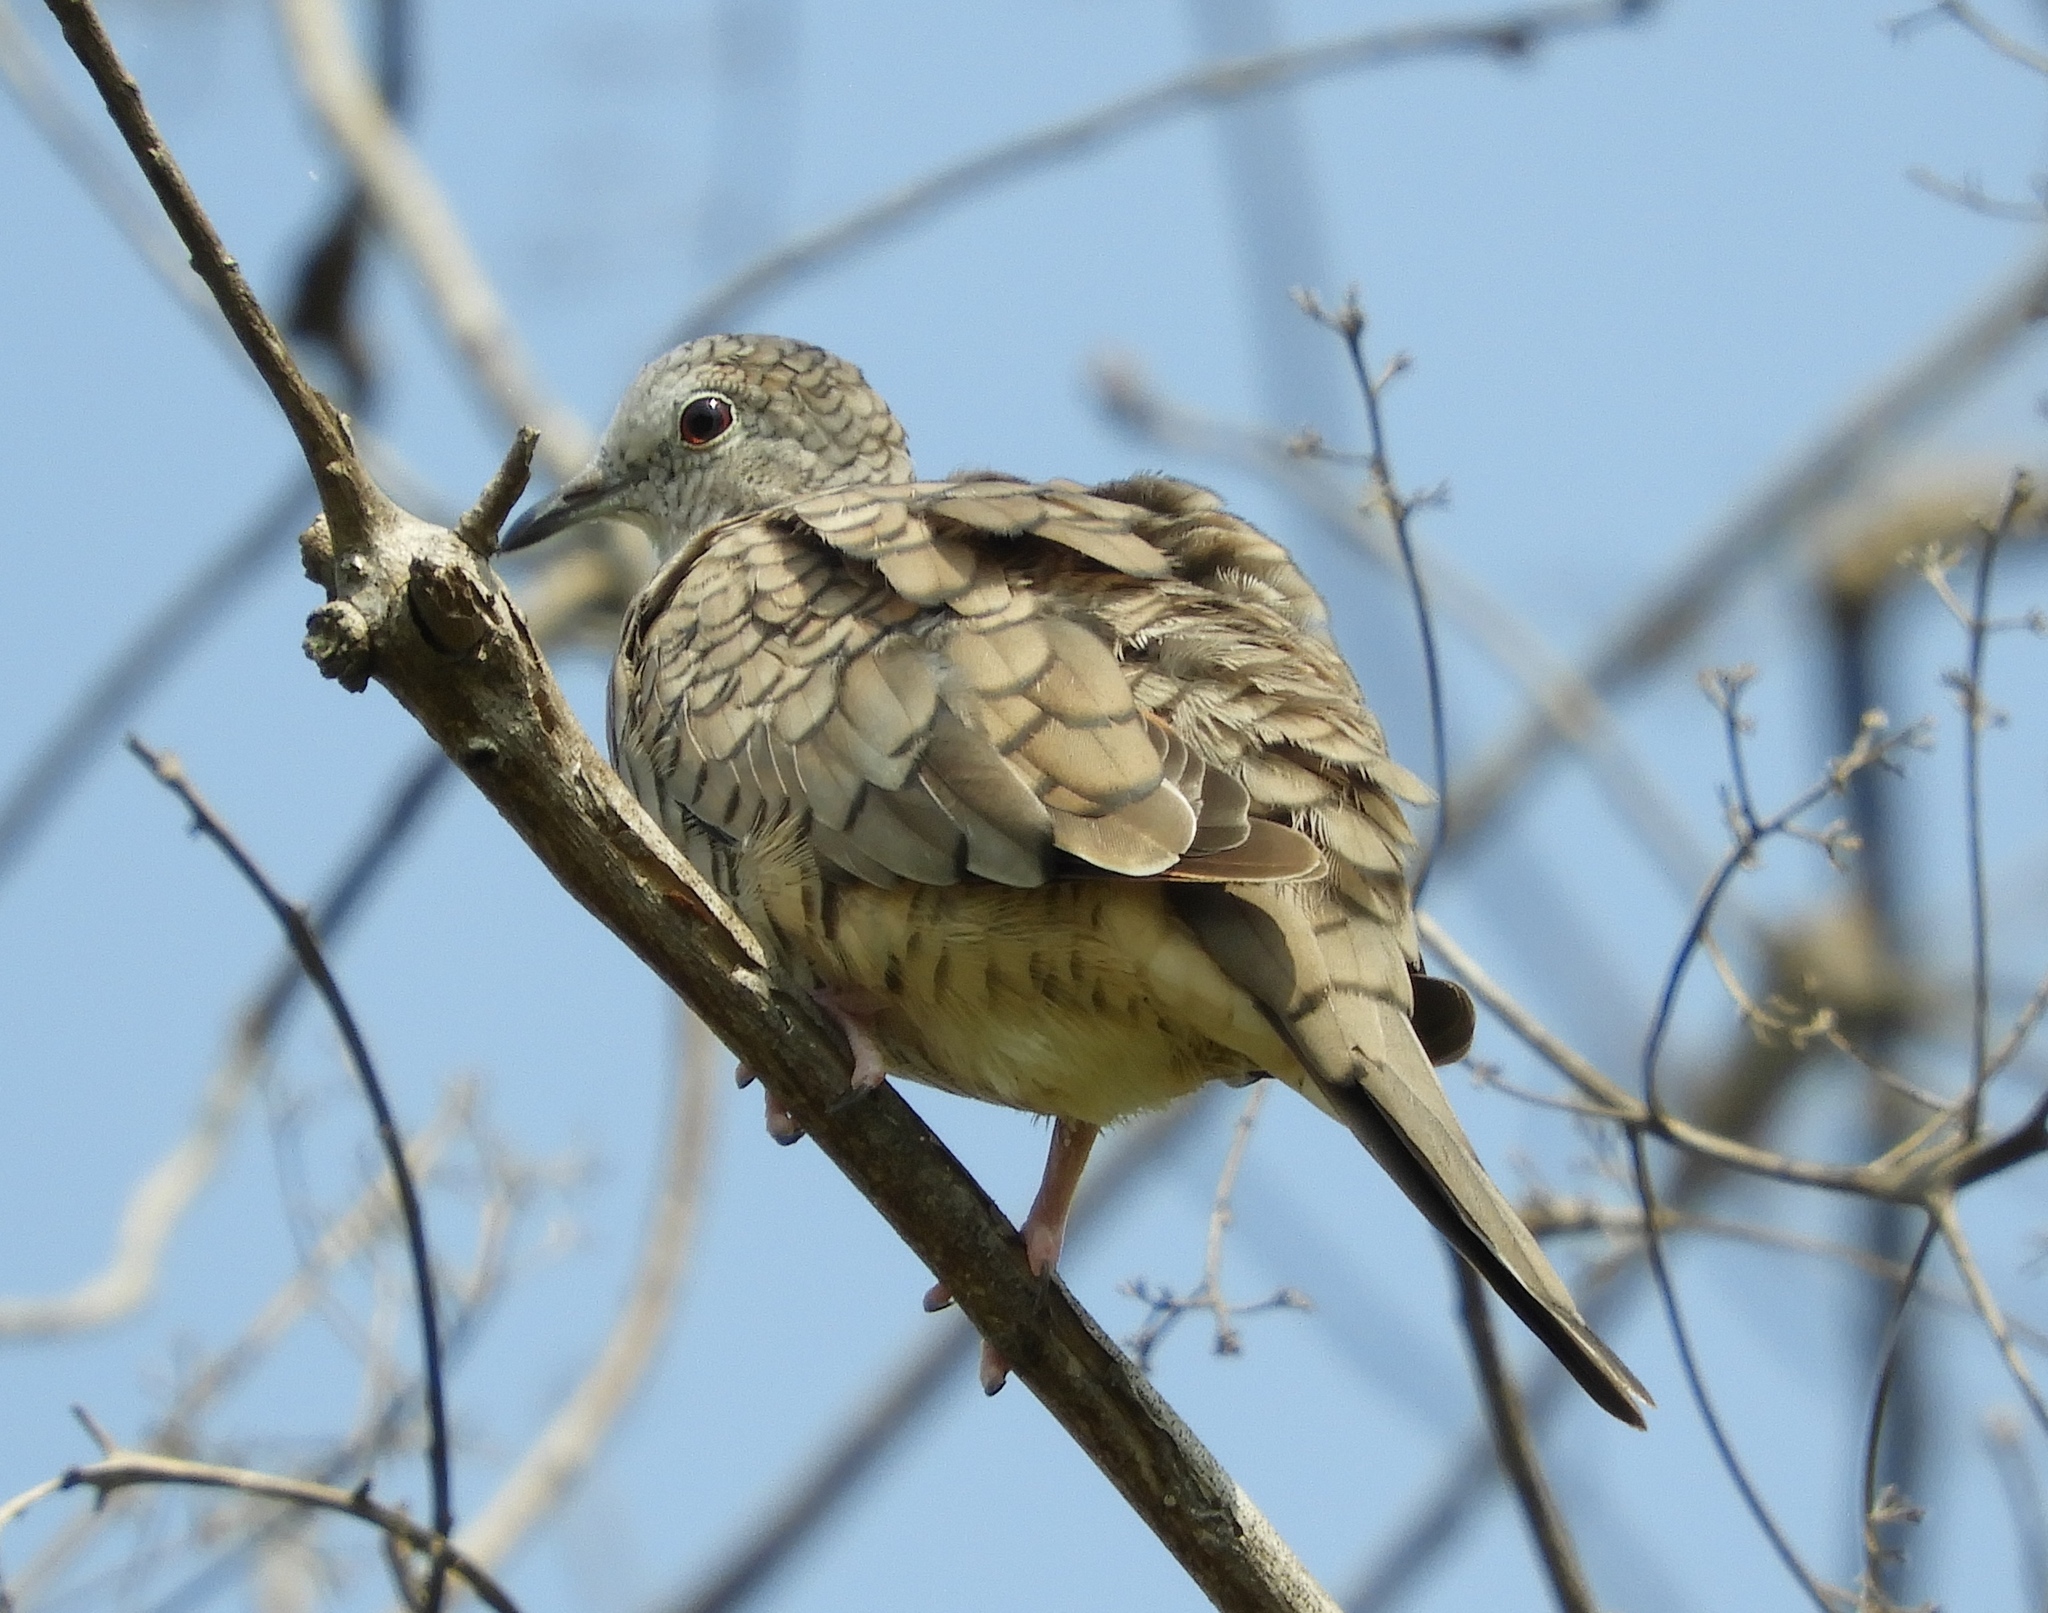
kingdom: Animalia
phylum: Chordata
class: Aves
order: Columbiformes
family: Columbidae
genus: Columbina
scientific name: Columbina inca
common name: Inca dove
